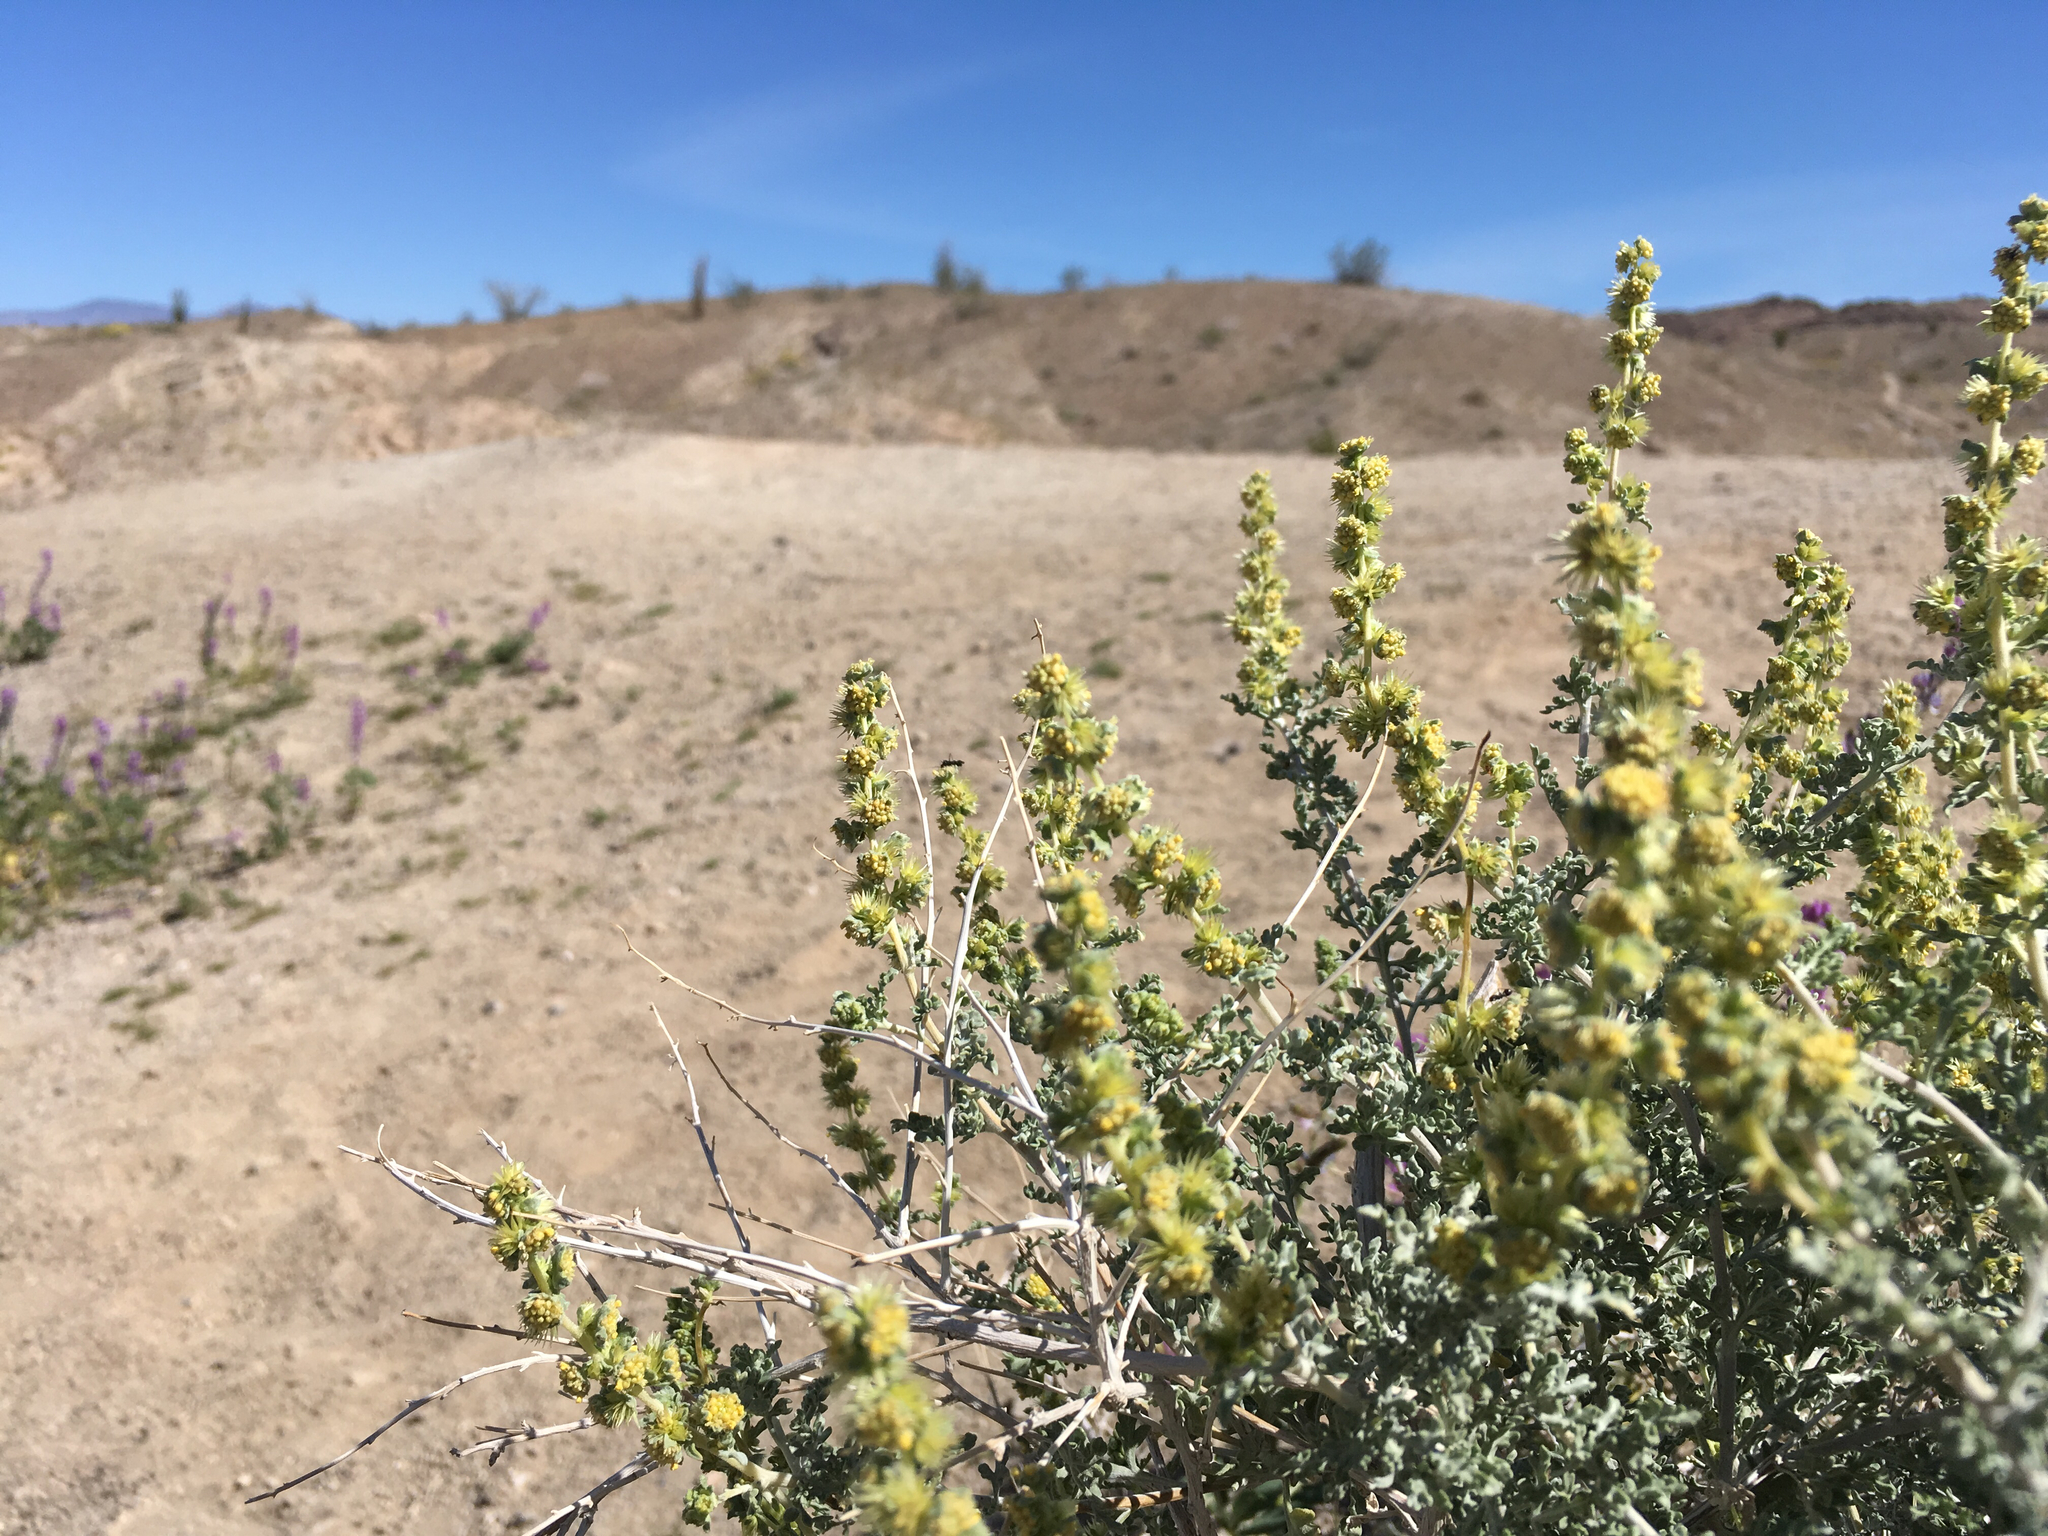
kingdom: Plantae
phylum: Tracheophyta
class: Magnoliopsida
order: Asterales
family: Asteraceae
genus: Ambrosia
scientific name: Ambrosia dumosa
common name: Bur-sage
